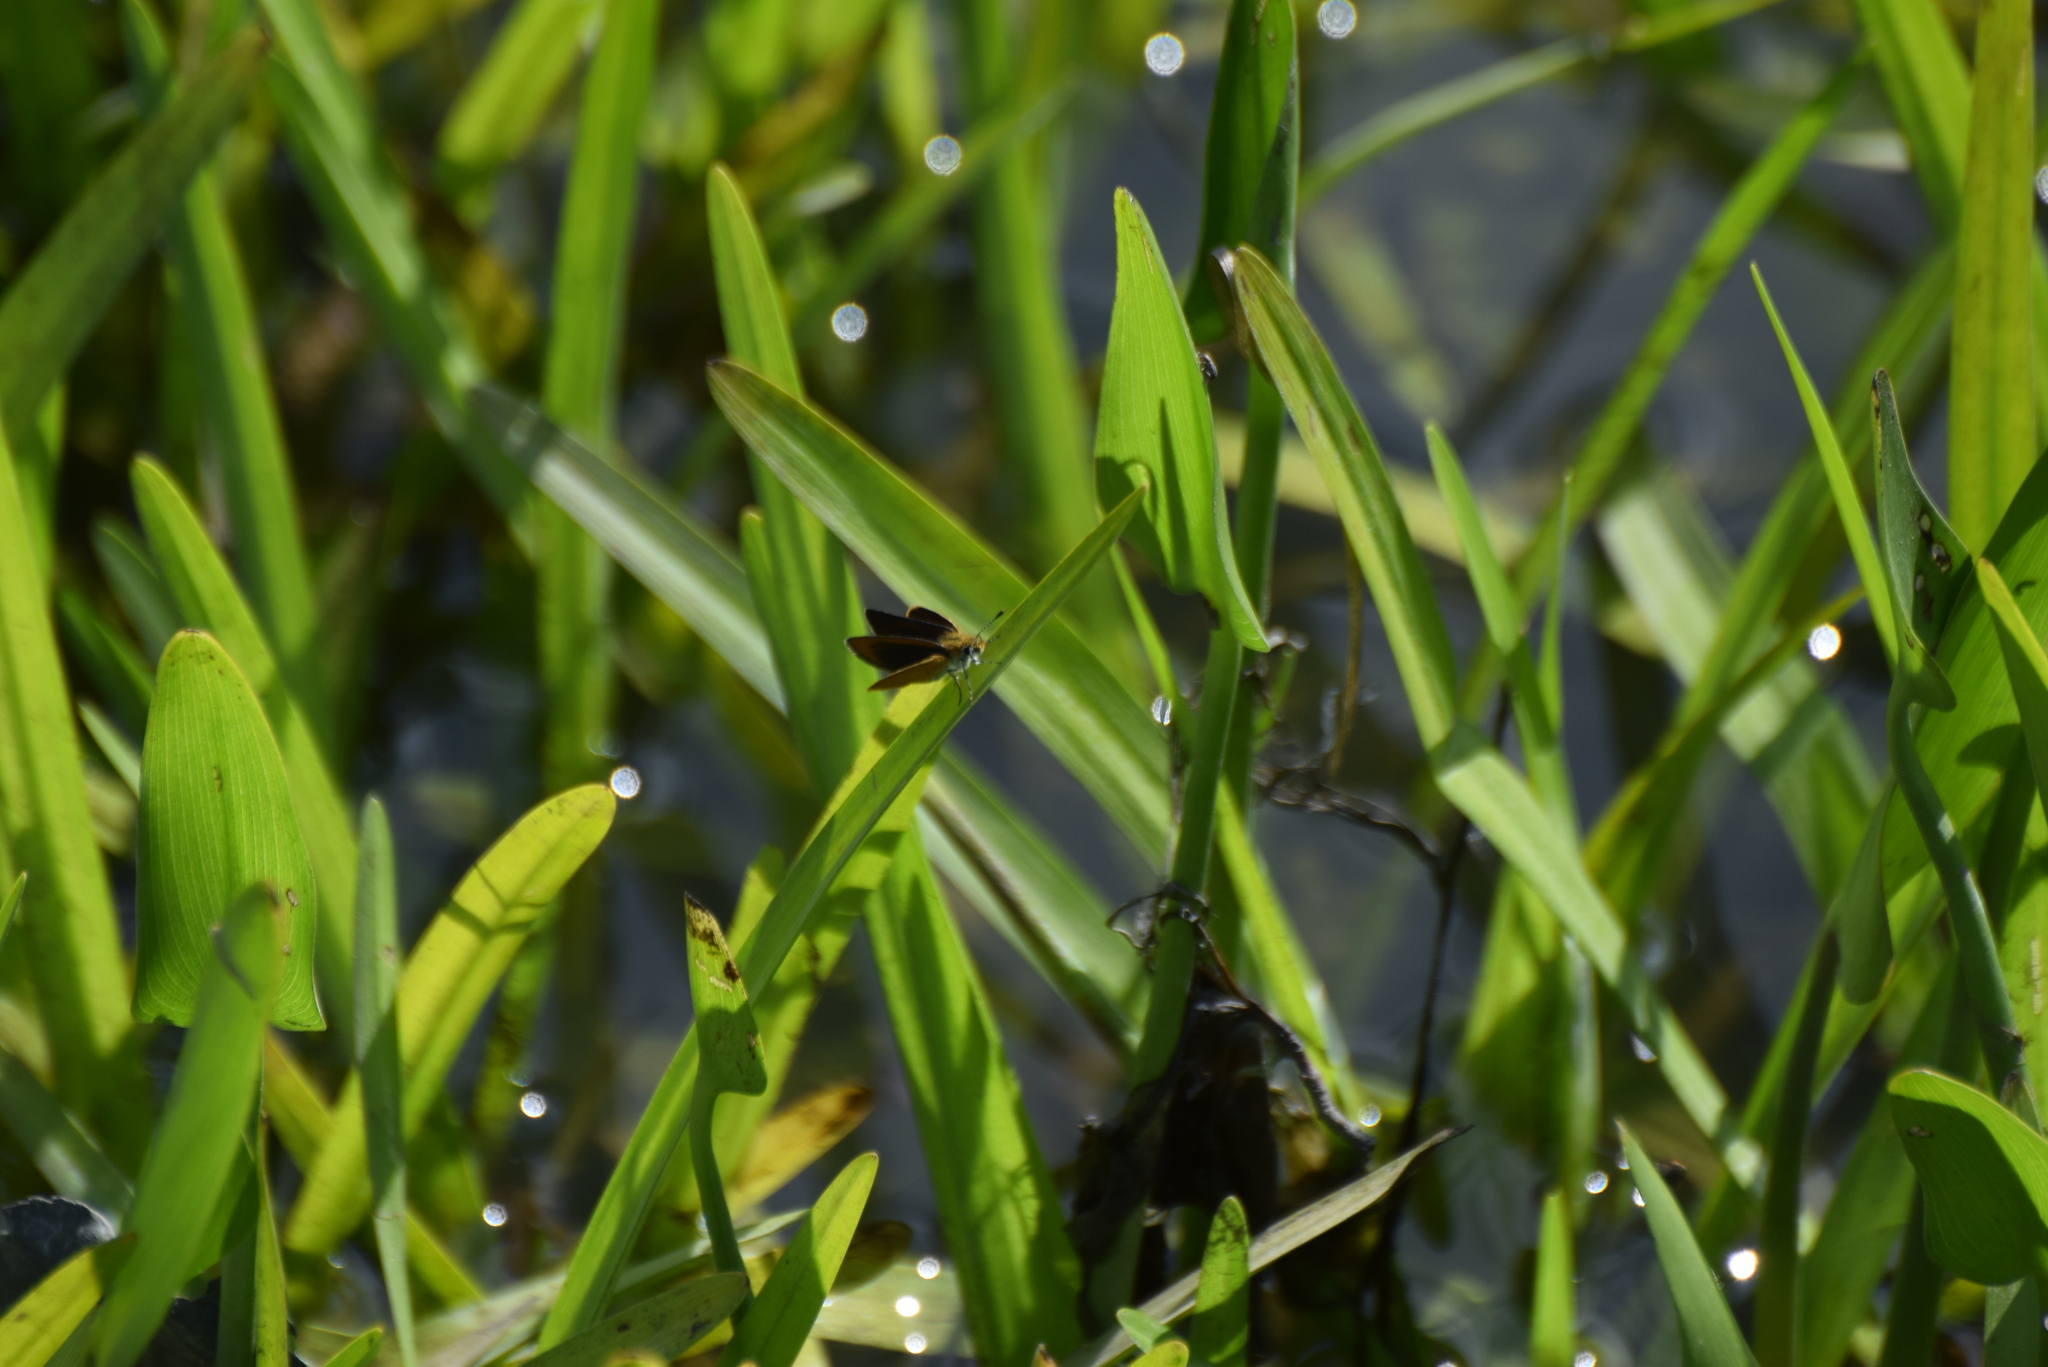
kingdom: Animalia
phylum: Arthropoda
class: Insecta
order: Lepidoptera
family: Hesperiidae
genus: Ancyloxypha
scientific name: Ancyloxypha numitor
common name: Least skipper
